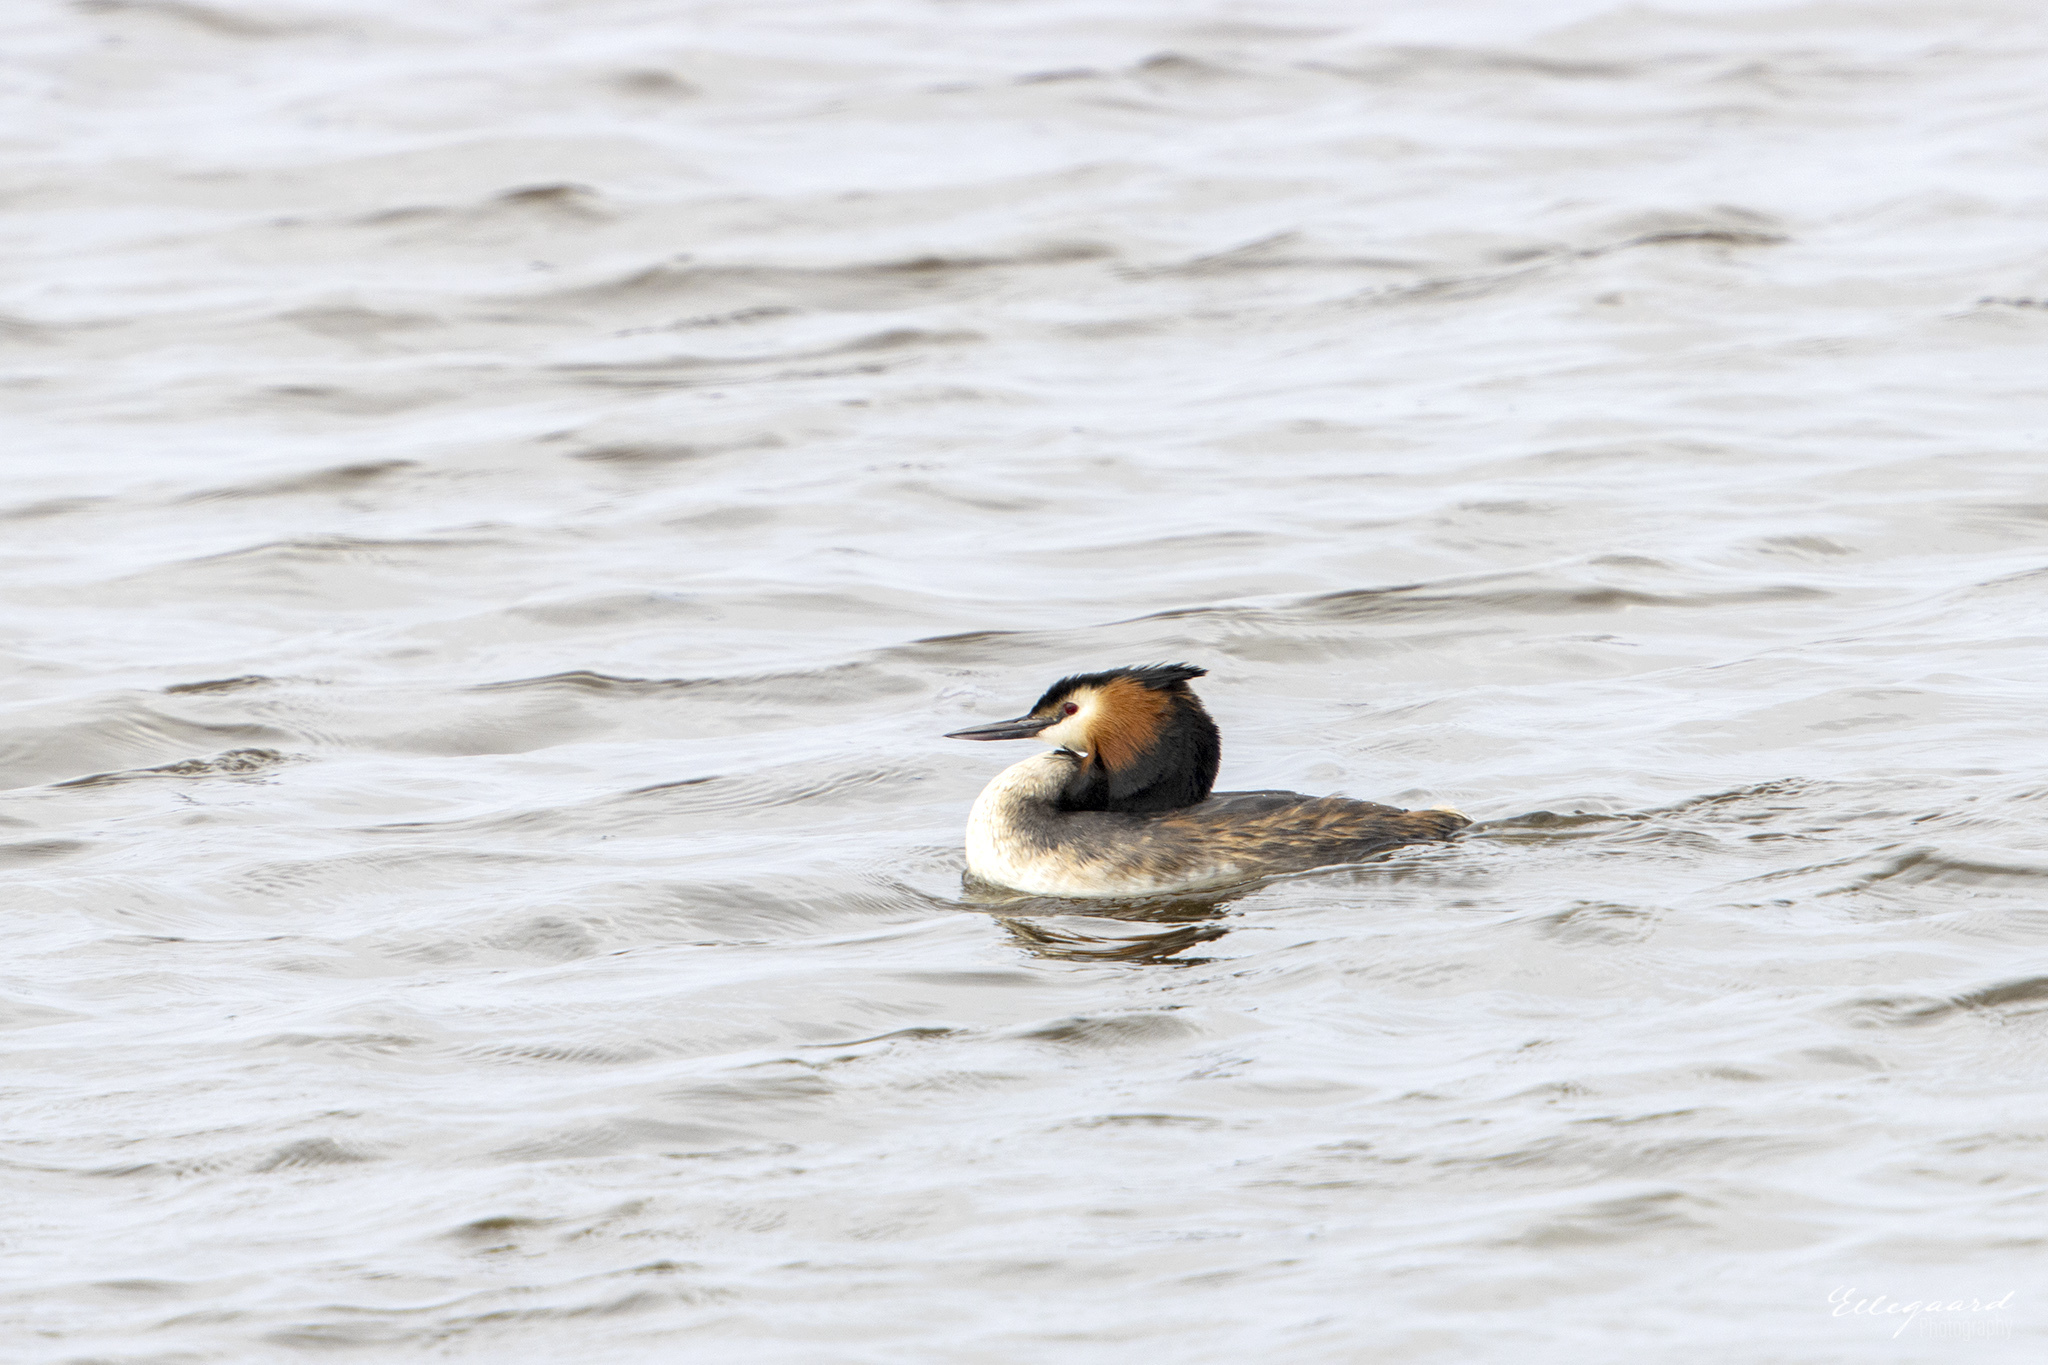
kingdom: Animalia
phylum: Chordata
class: Aves
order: Podicipediformes
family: Podicipedidae
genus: Podiceps
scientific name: Podiceps cristatus
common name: Great crested grebe
